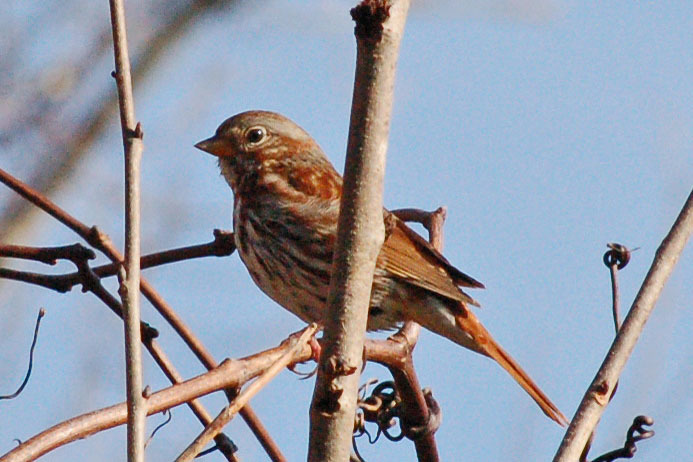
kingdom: Animalia
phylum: Chordata
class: Aves
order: Passeriformes
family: Passerellidae
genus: Passerella
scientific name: Passerella iliaca
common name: Fox sparrow
